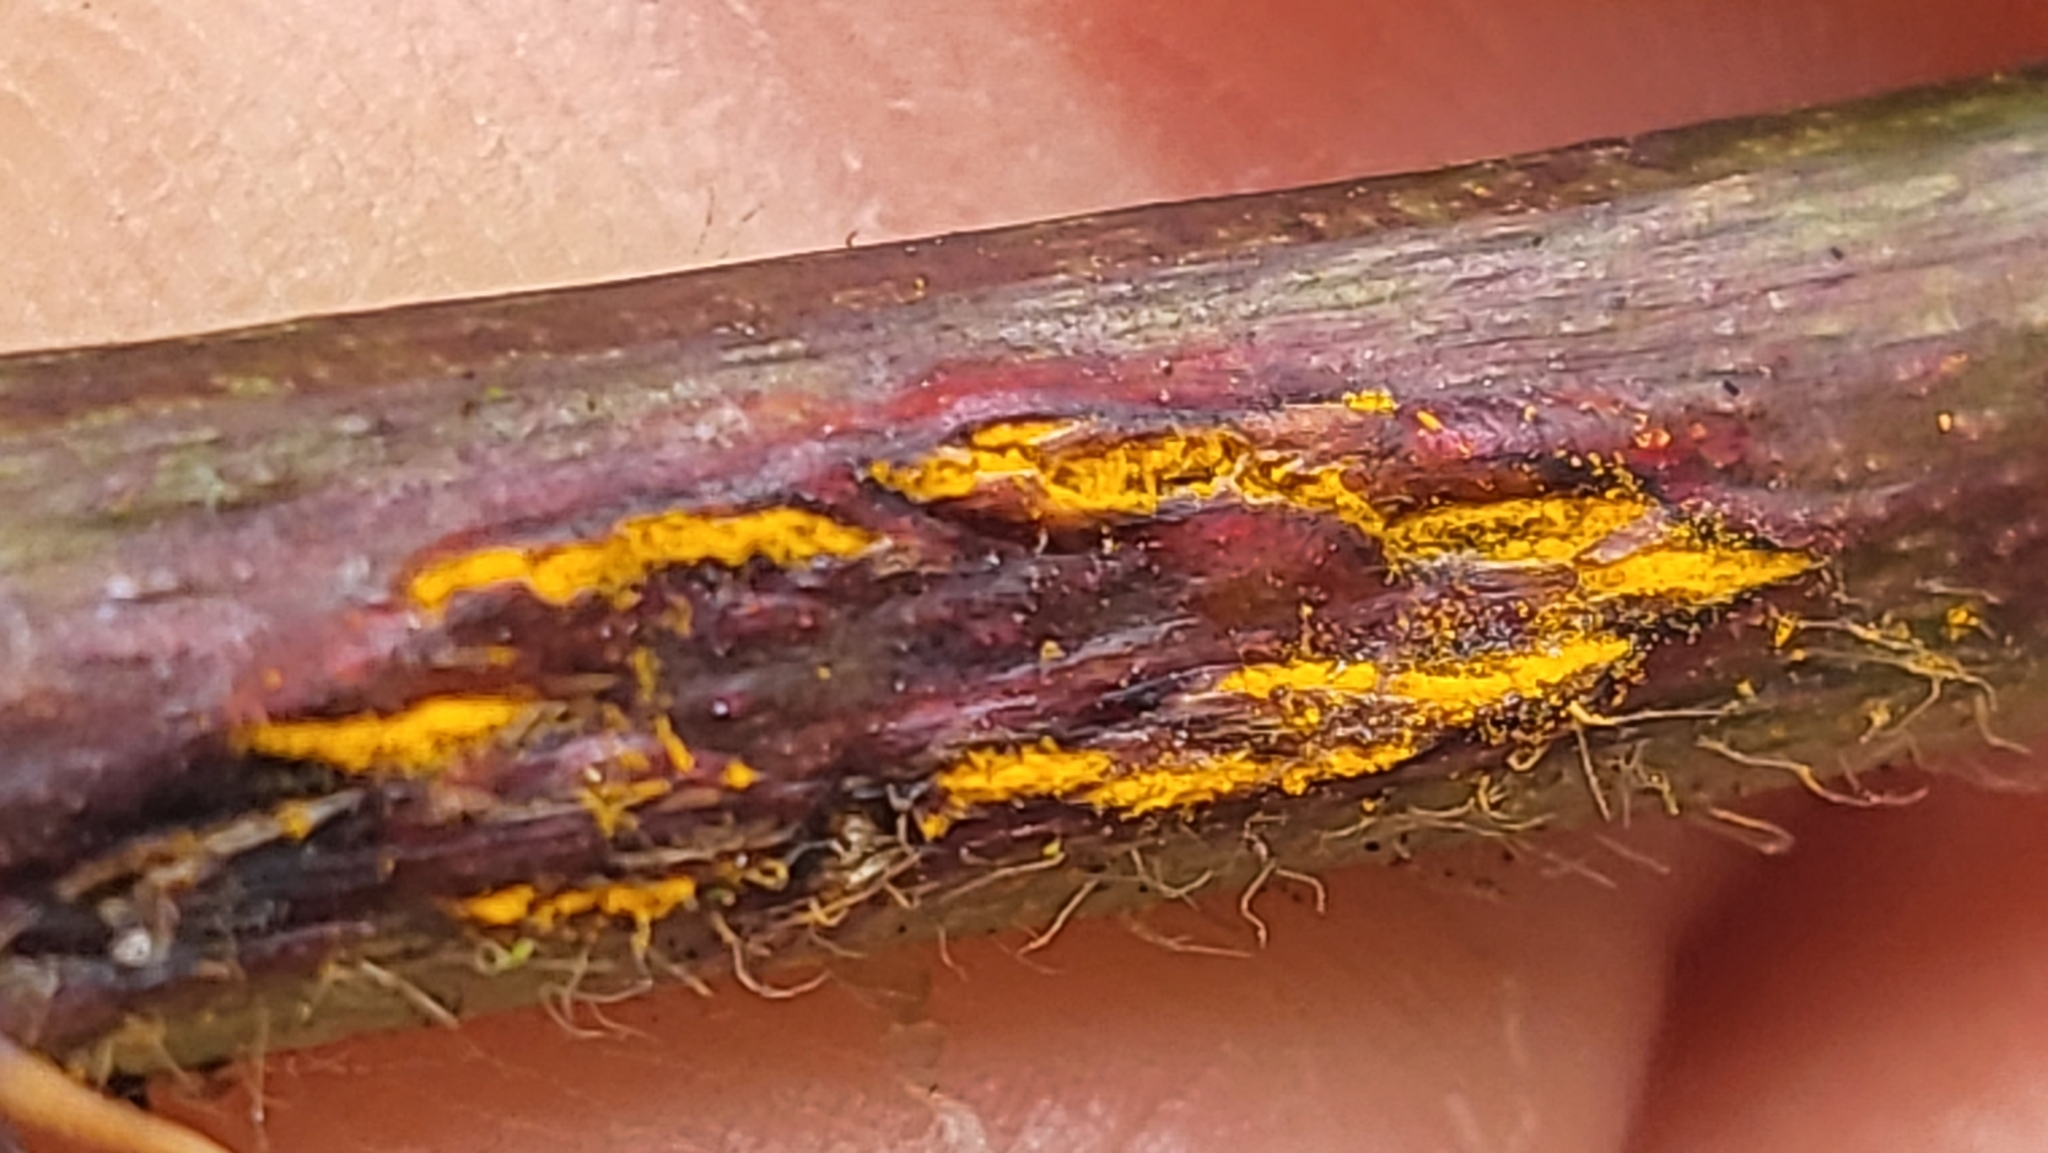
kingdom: Fungi
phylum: Basidiomycota
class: Pucciniomycetes
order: Pucciniales
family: Phragmidiaceae
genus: Kuehneola
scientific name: Kuehneola uredinis
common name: Bramble stem rust
